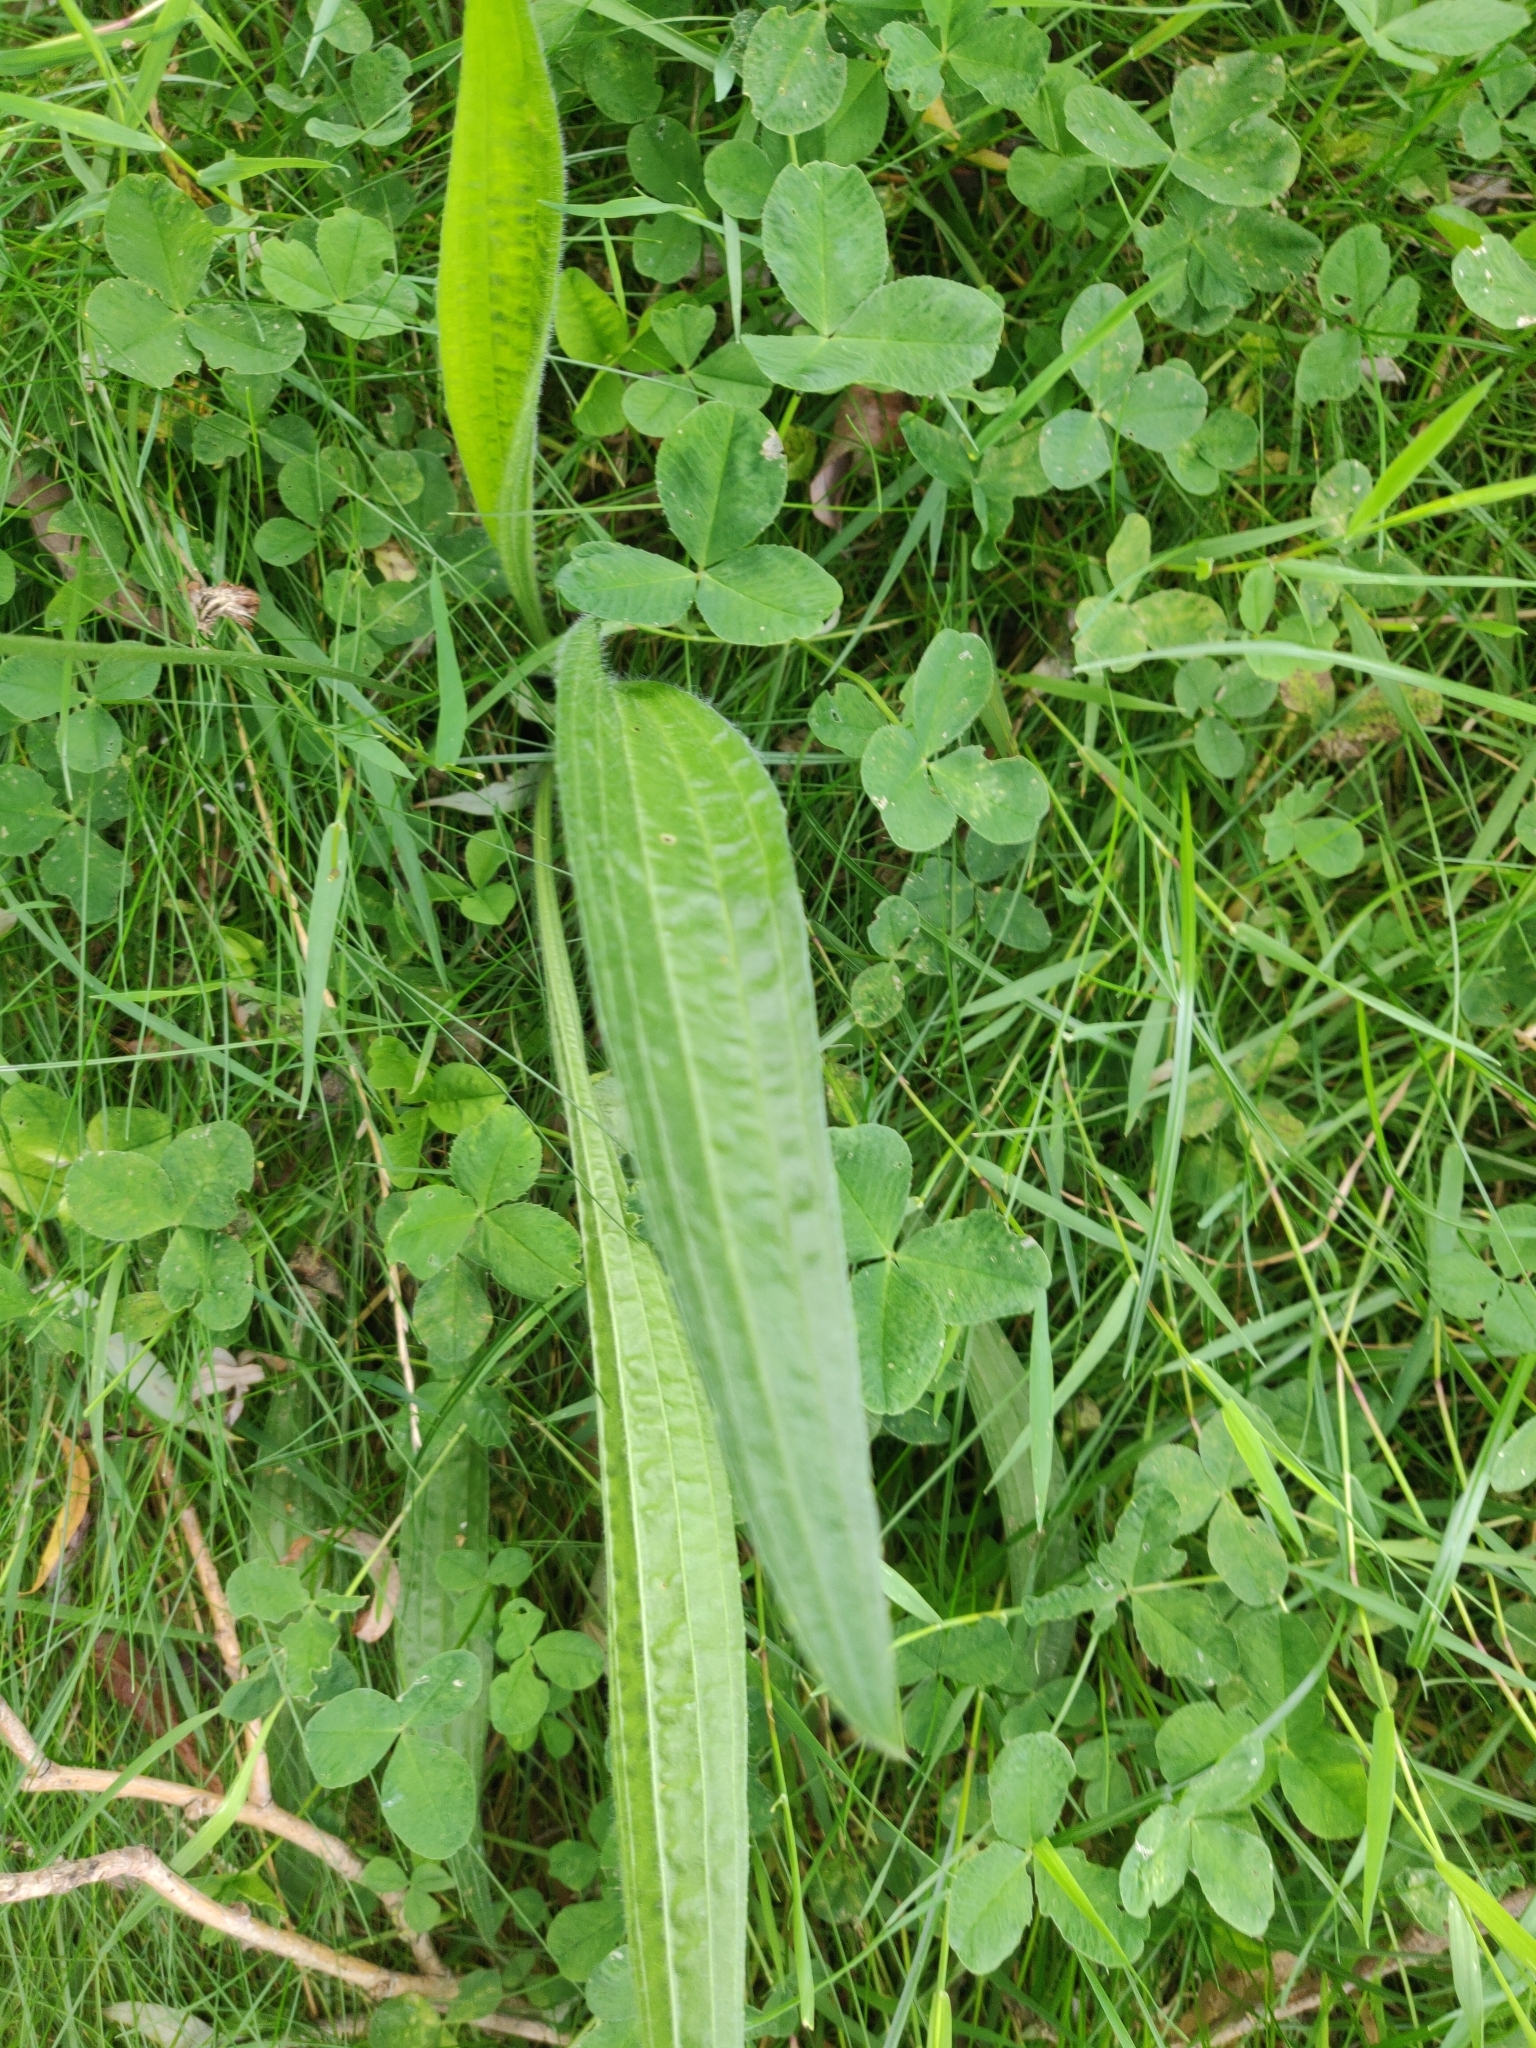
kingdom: Plantae
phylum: Tracheophyta
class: Magnoliopsida
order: Lamiales
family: Plantaginaceae
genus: Plantago
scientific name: Plantago lanceolata
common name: Ribwort plantain
